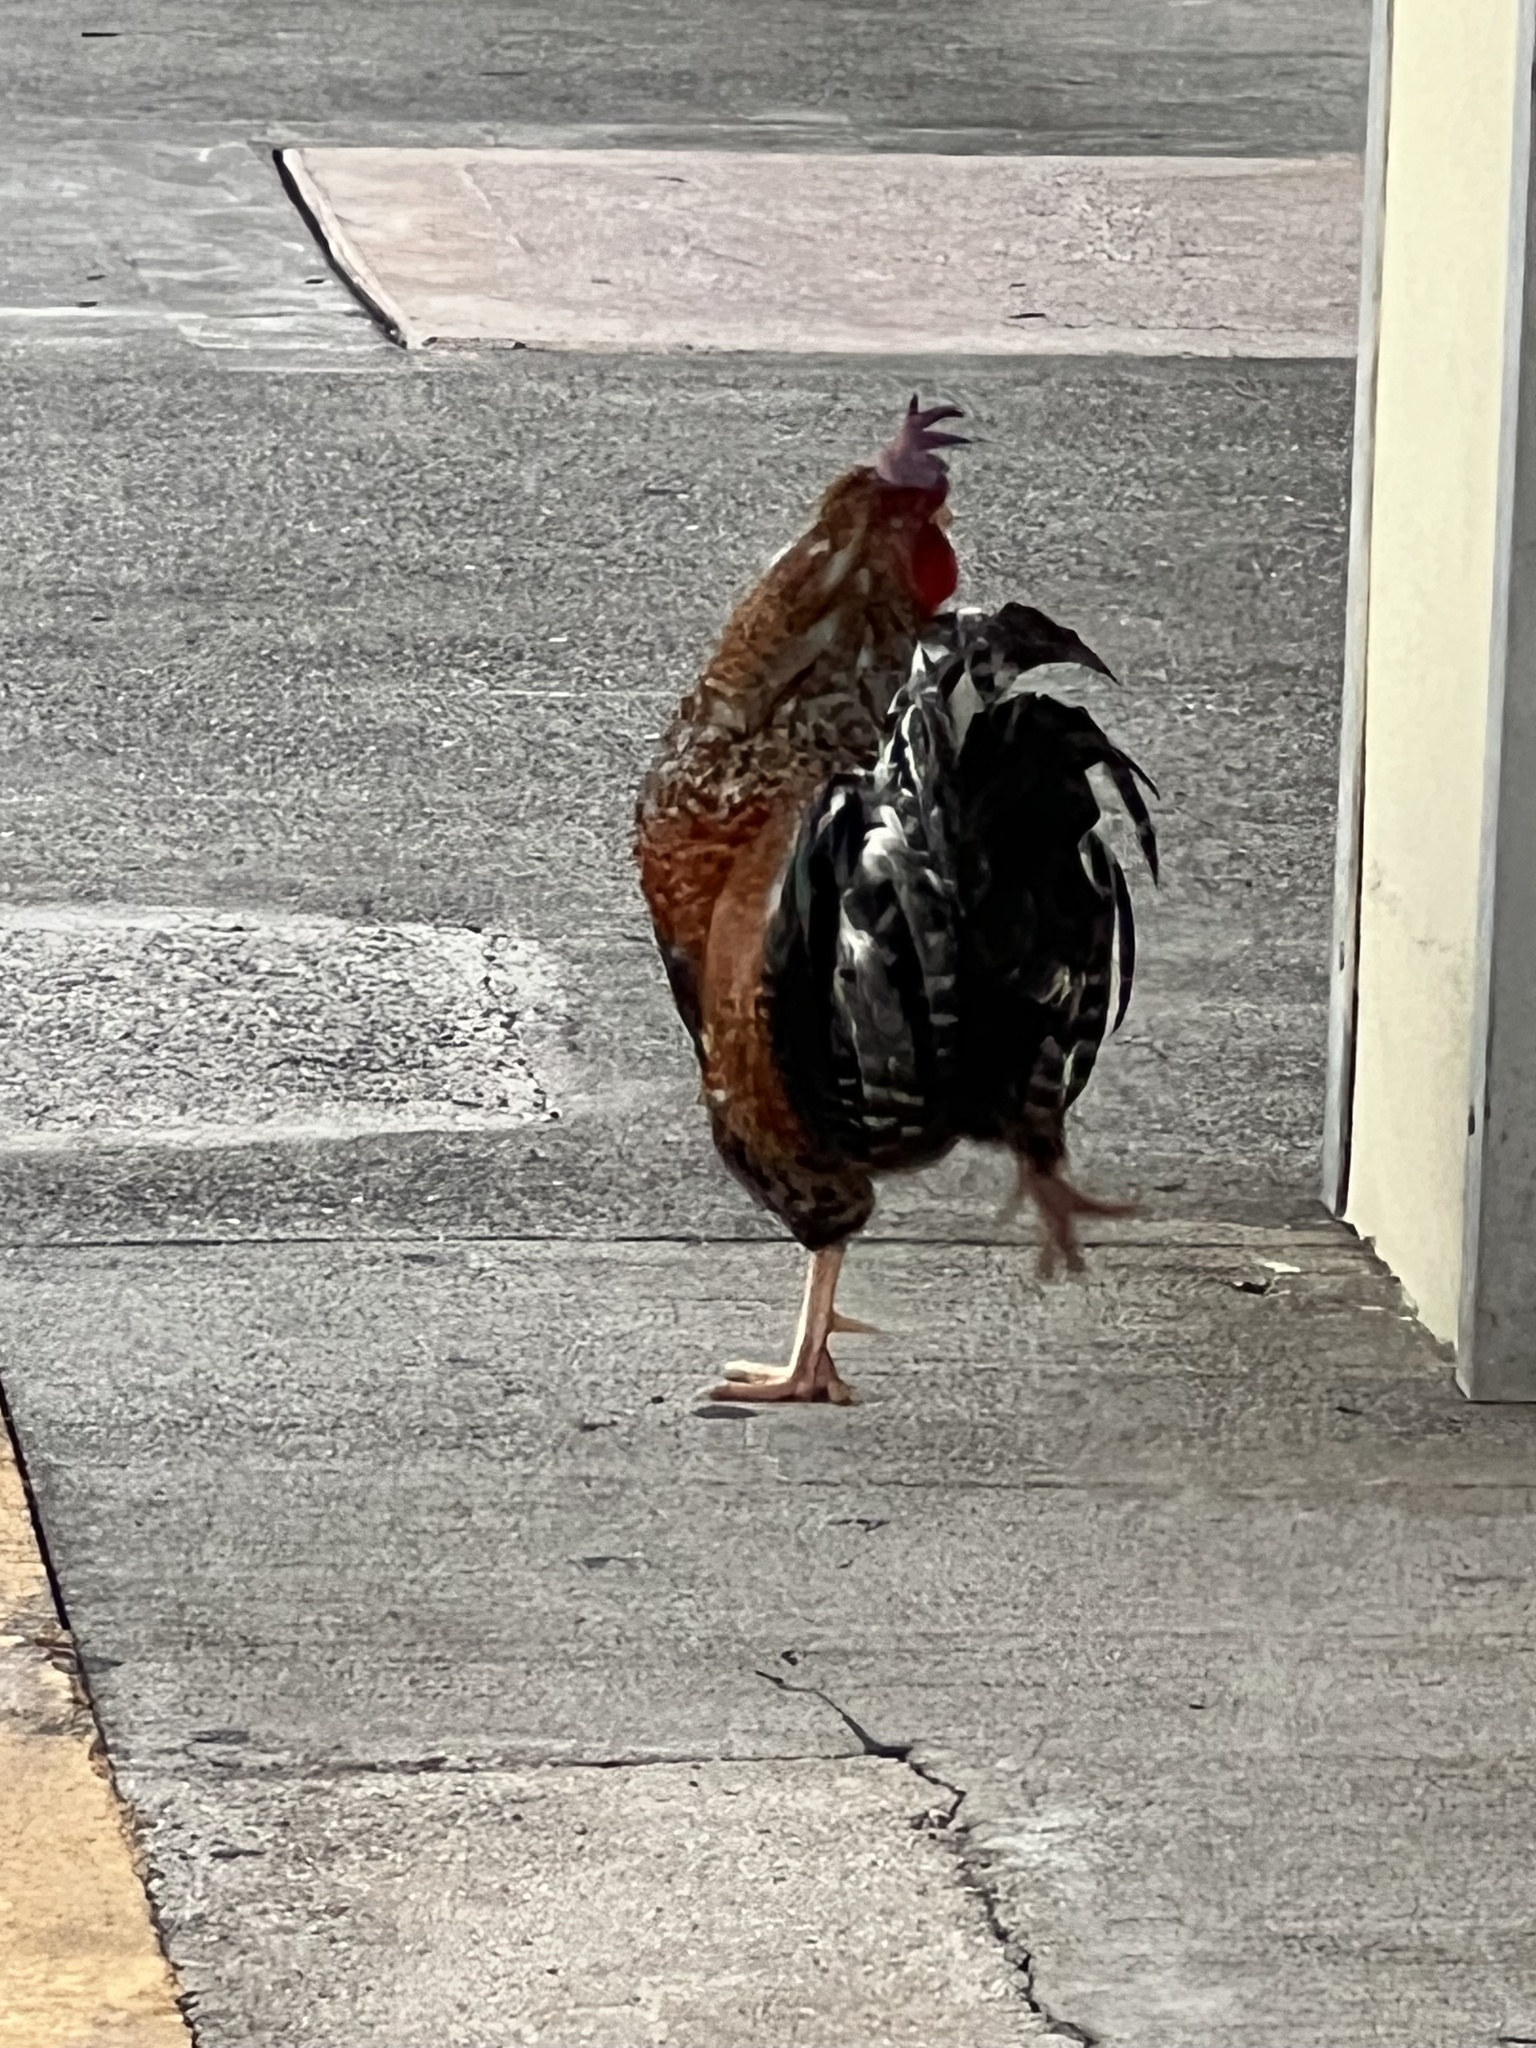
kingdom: Animalia
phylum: Chordata
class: Aves
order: Galliformes
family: Phasianidae
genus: Gallus
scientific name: Gallus gallus
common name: Red junglefowl
